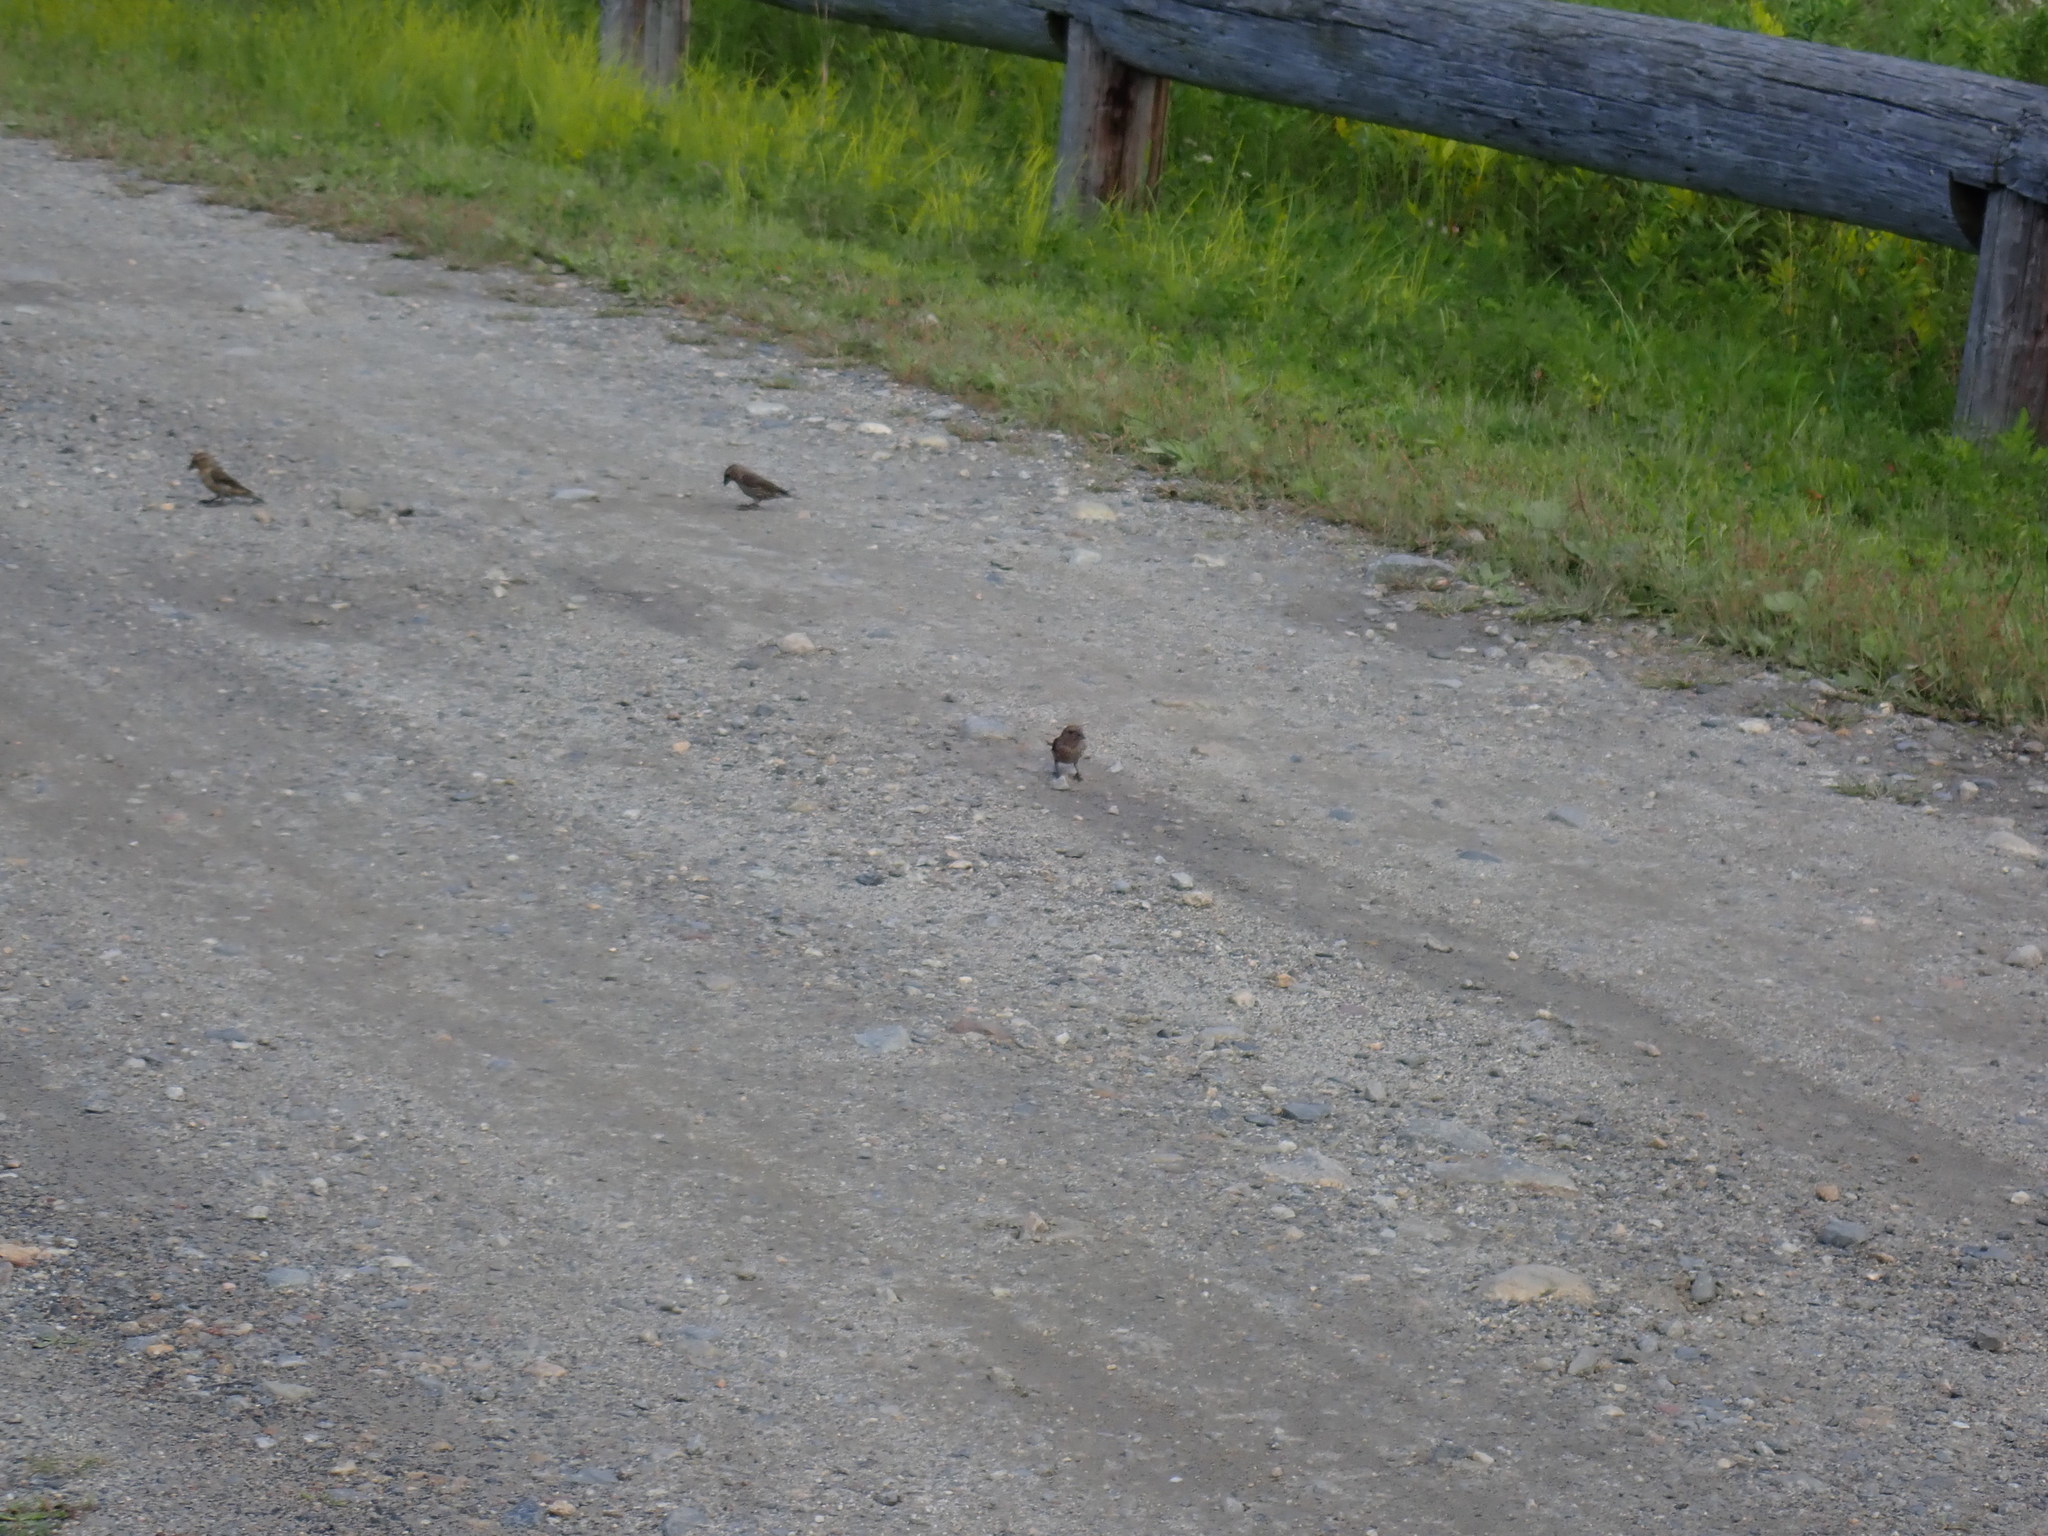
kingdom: Animalia
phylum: Chordata
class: Aves
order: Passeriformes
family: Fringillidae
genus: Loxia
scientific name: Loxia curvirostra
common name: Red crossbill
